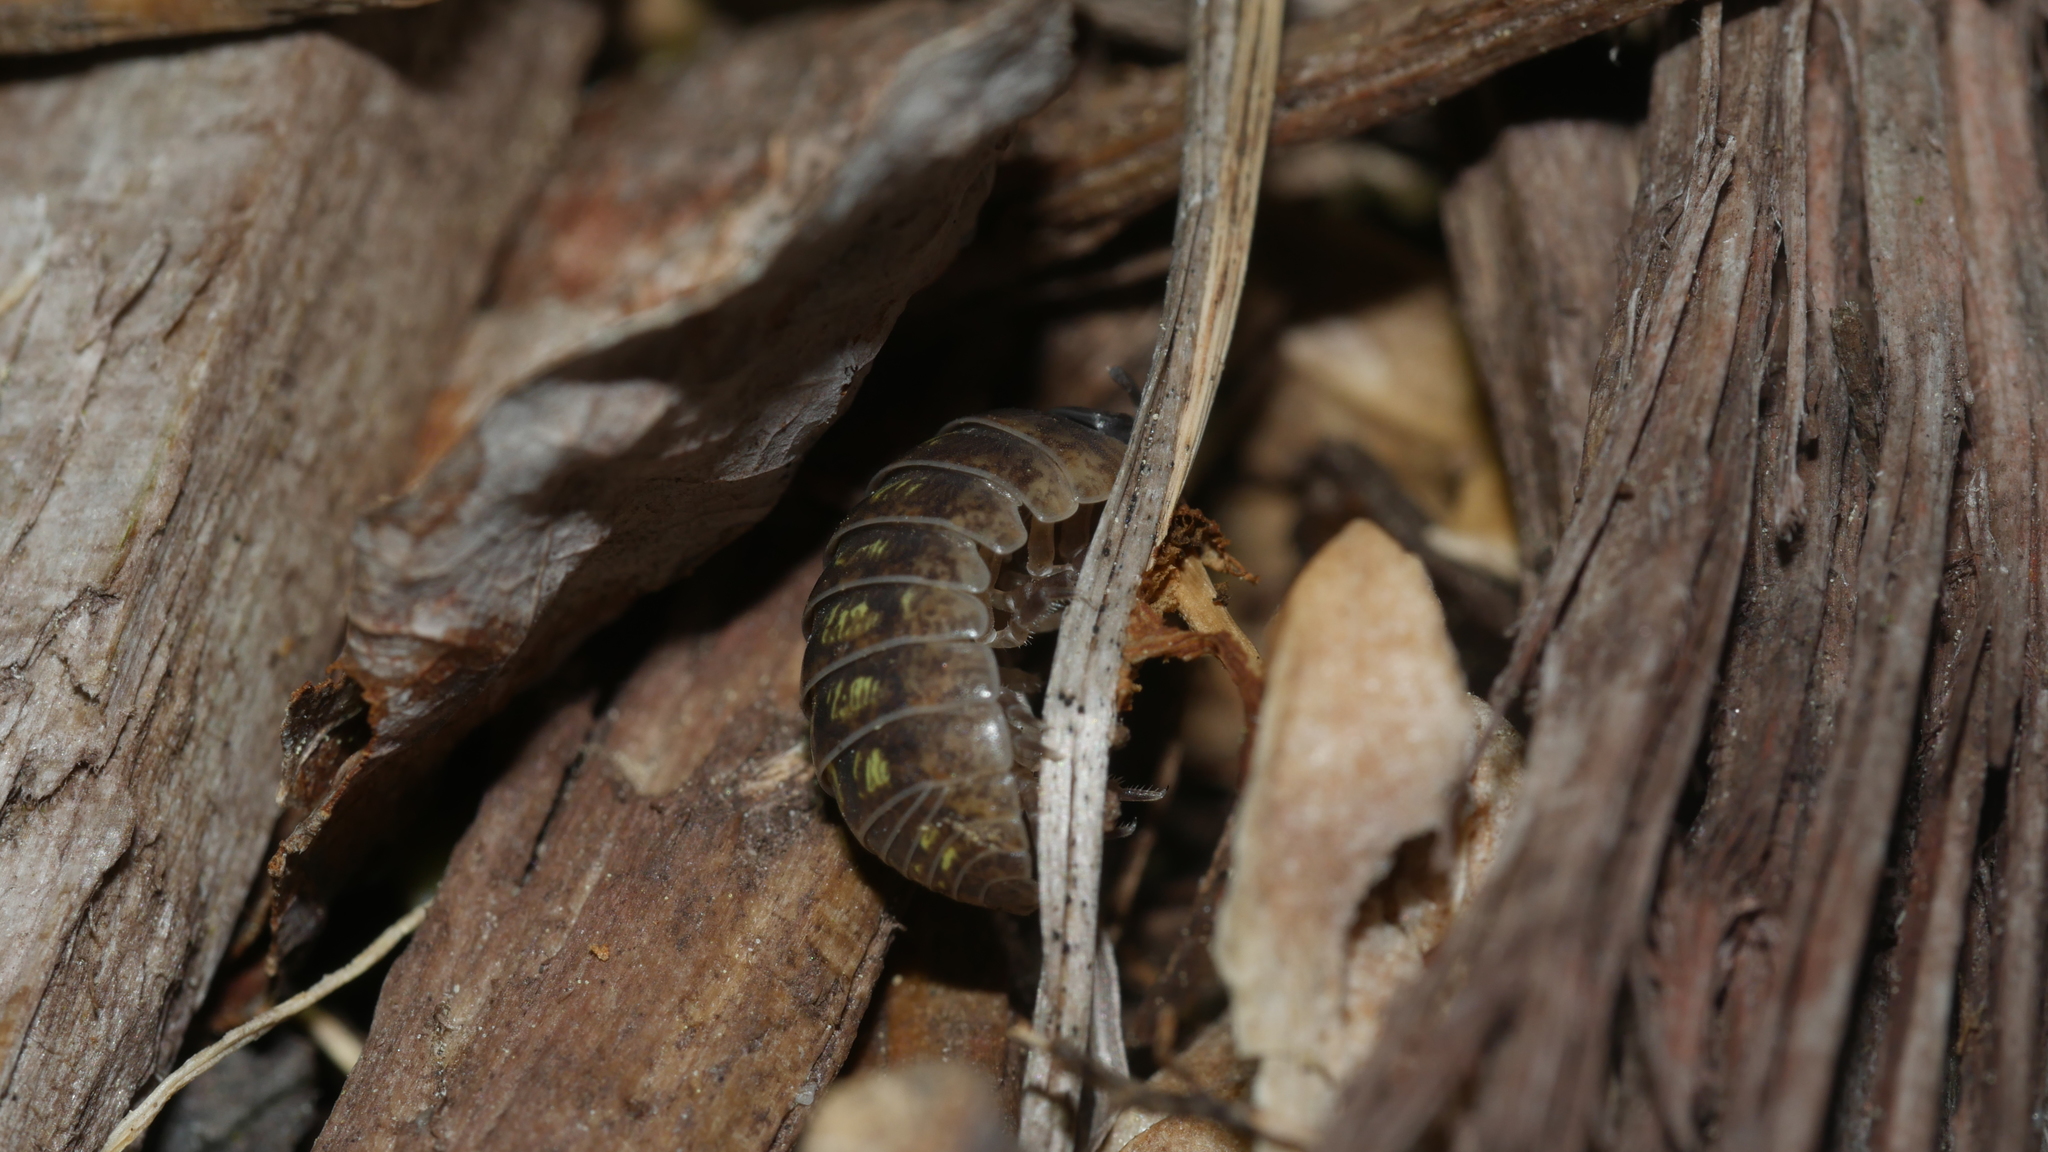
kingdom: Animalia
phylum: Arthropoda
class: Malacostraca
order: Isopoda
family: Armadillidiidae
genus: Armadillidium
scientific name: Armadillidium vulgare
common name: Common pill woodlouse
